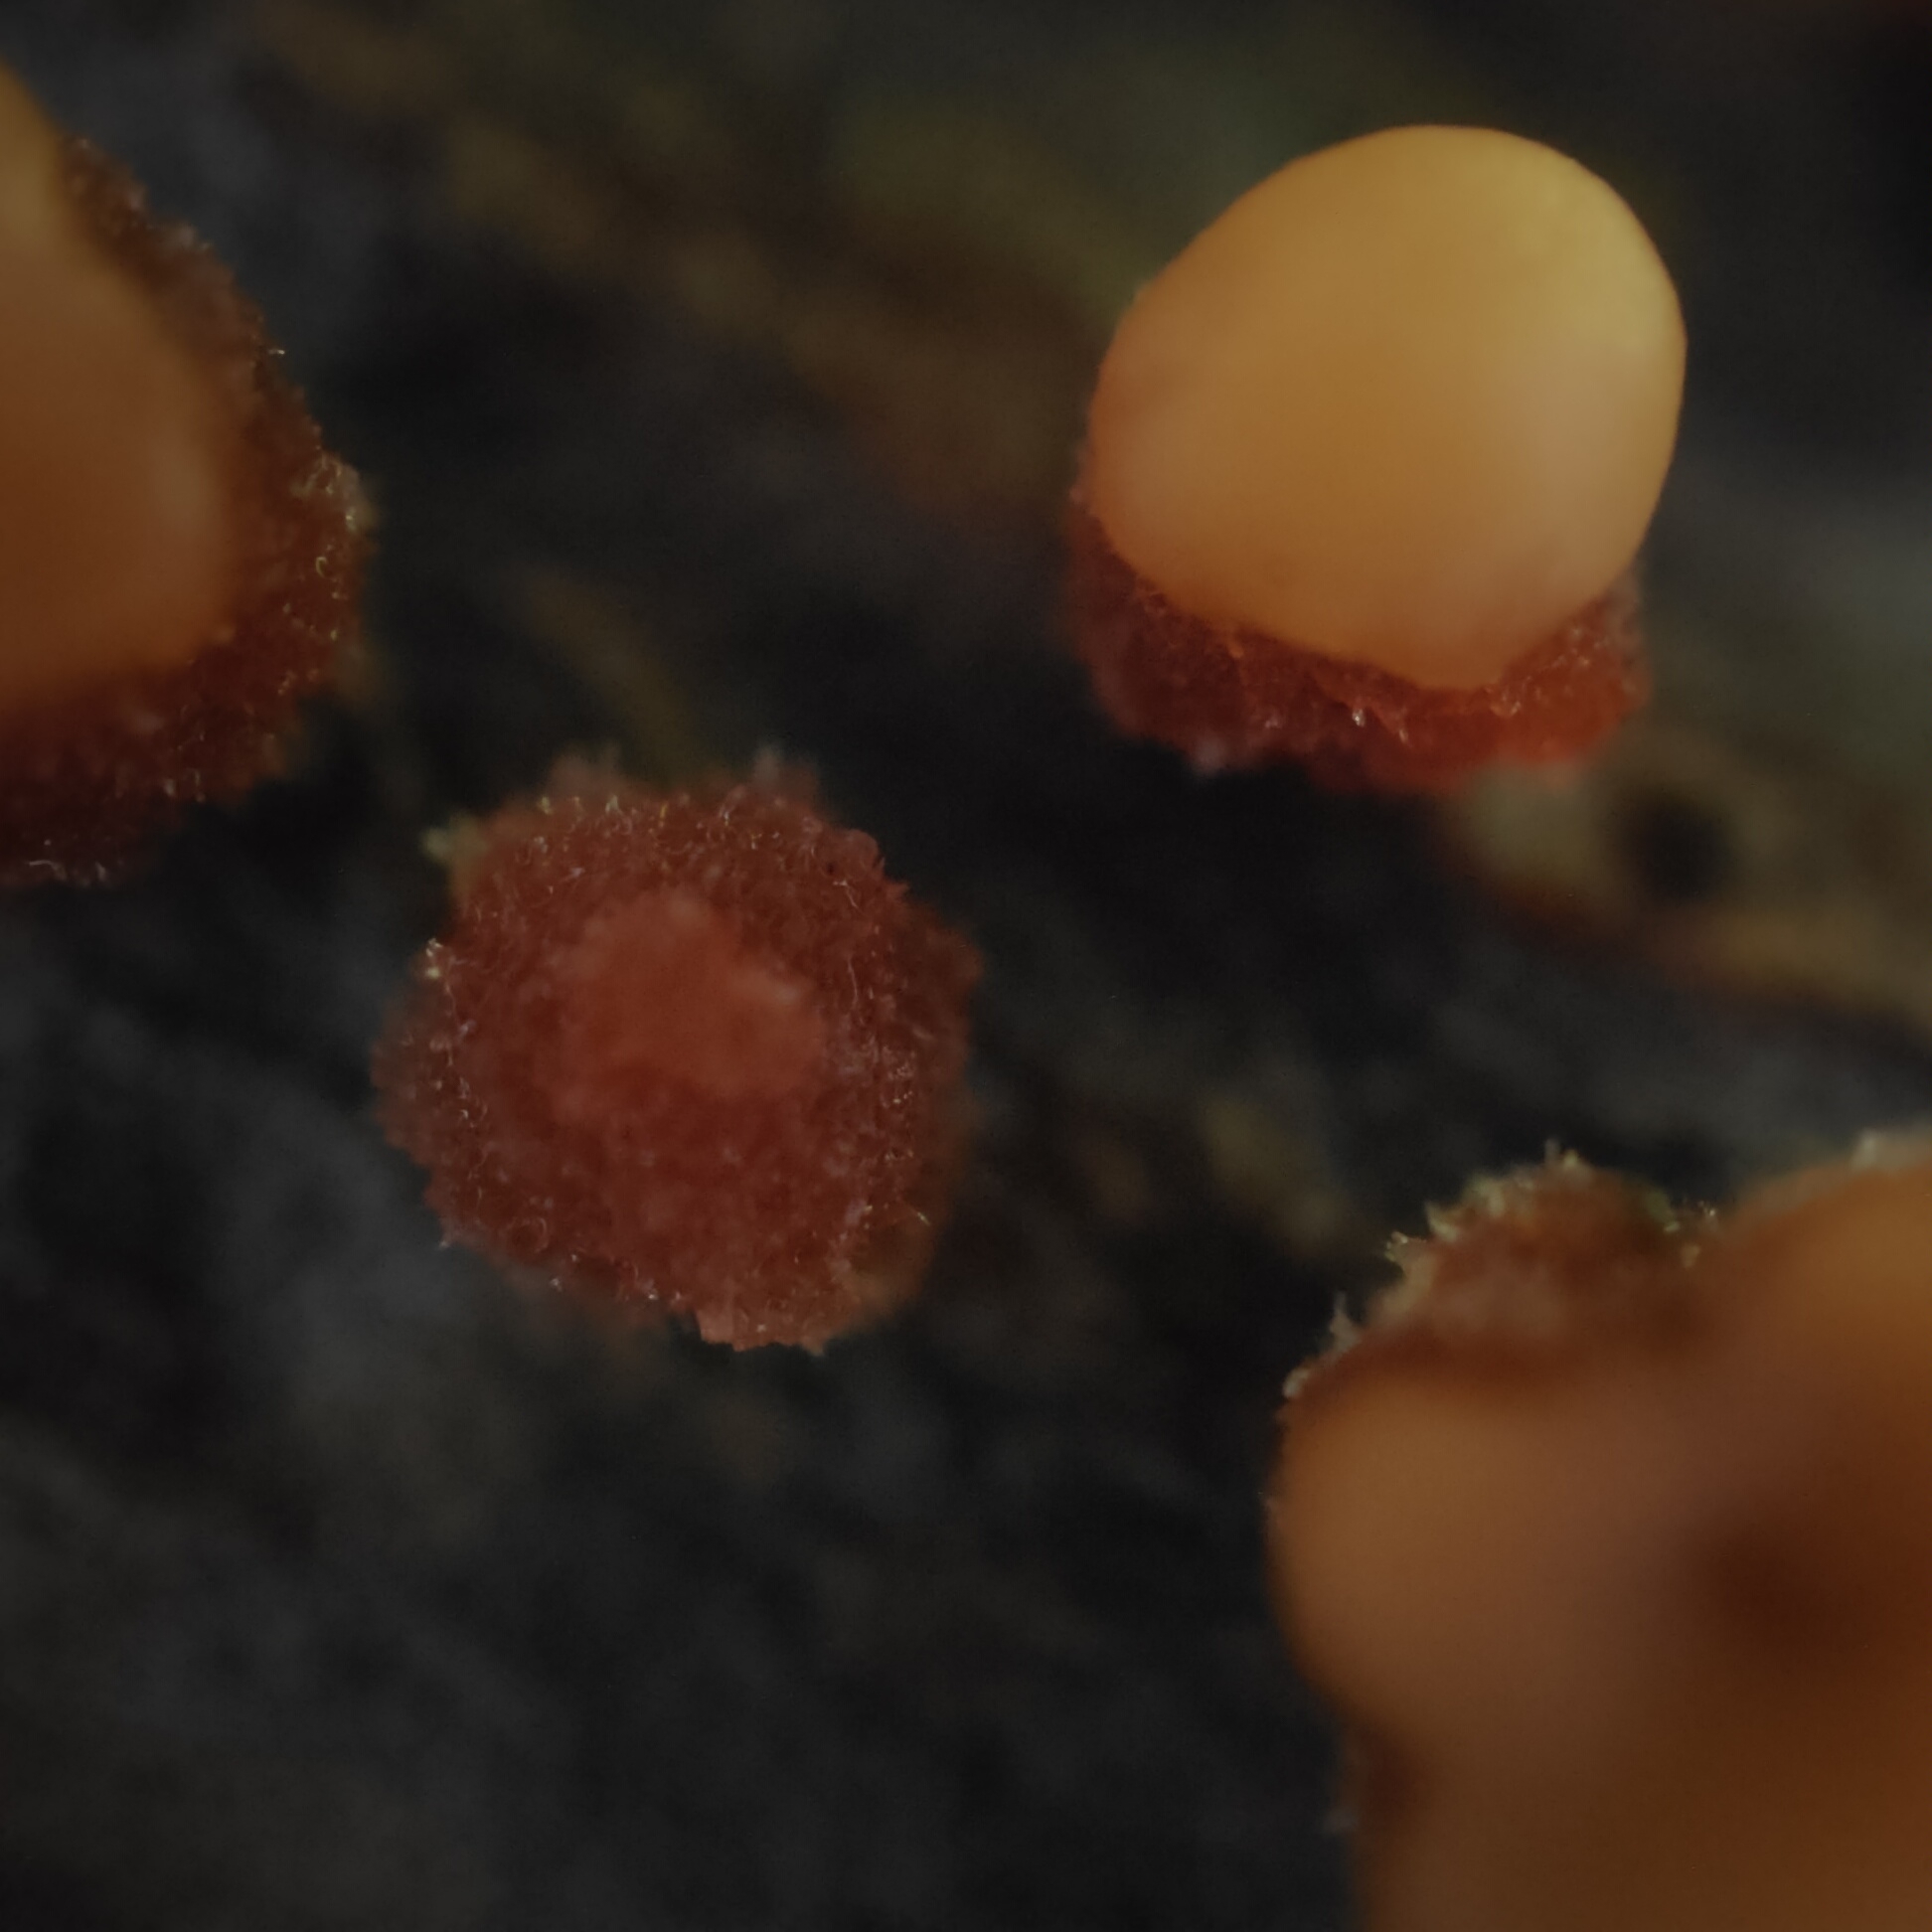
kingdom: Fungi
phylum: Basidiomycota
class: Agaricomycetes
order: Russulales
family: Stereaceae
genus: Aleurodiscus
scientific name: Aleurodiscus berggrenii
